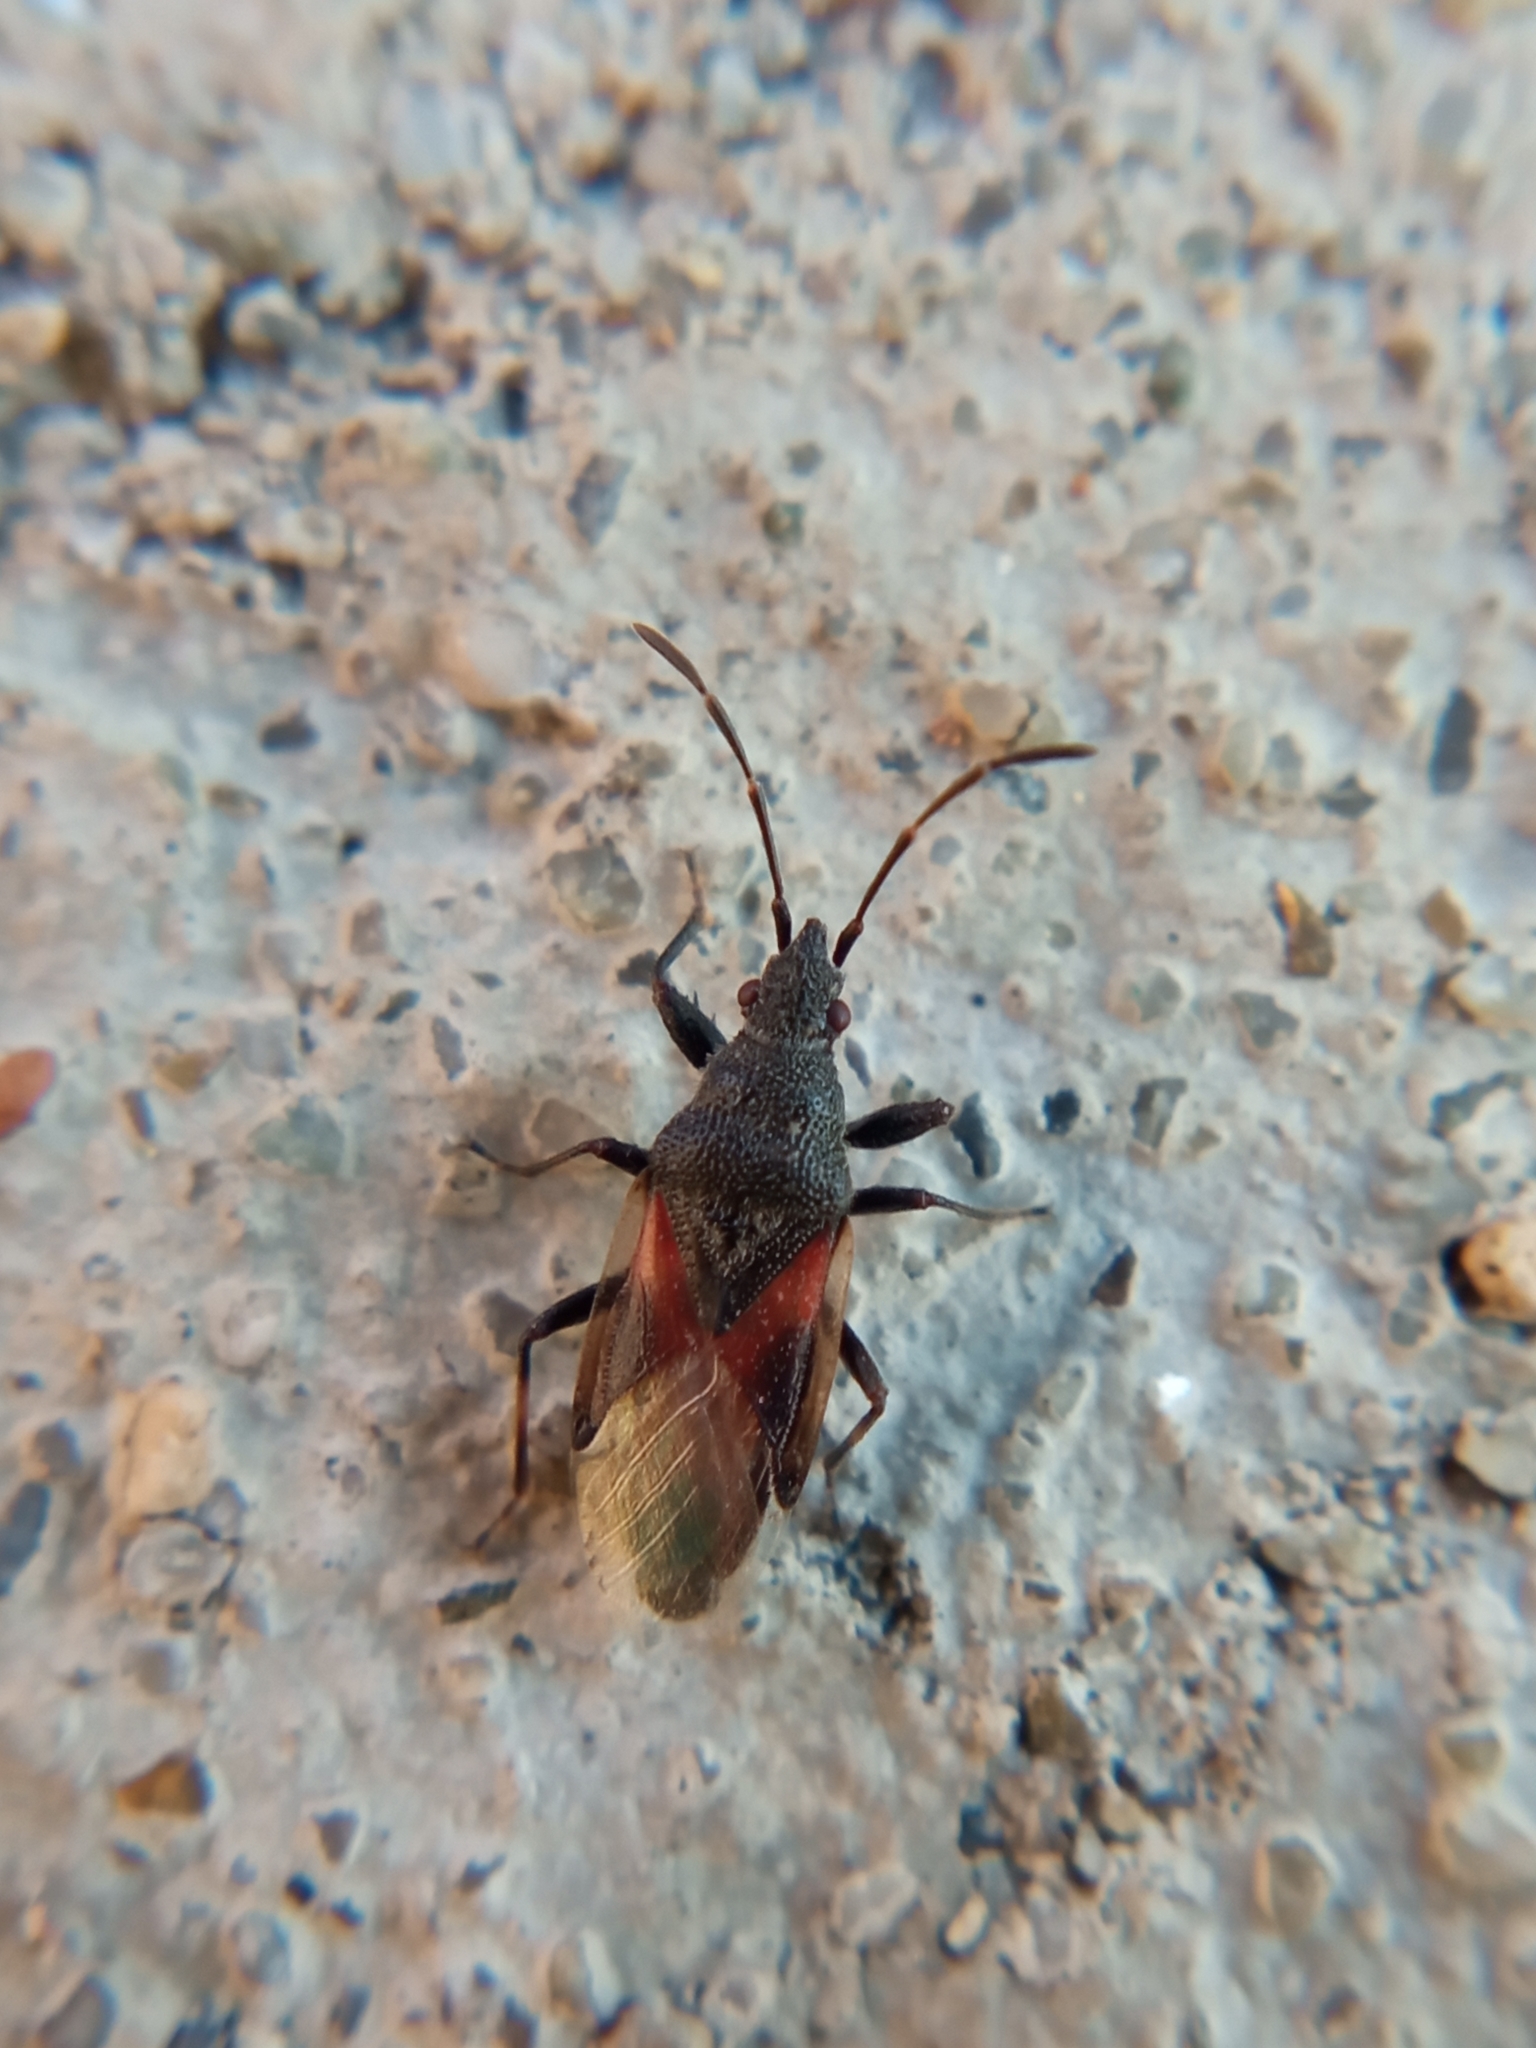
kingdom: Animalia
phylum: Arthropoda
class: Insecta
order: Hemiptera
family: Oxycarenidae
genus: Oxycarenus
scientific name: Oxycarenus lavaterae
